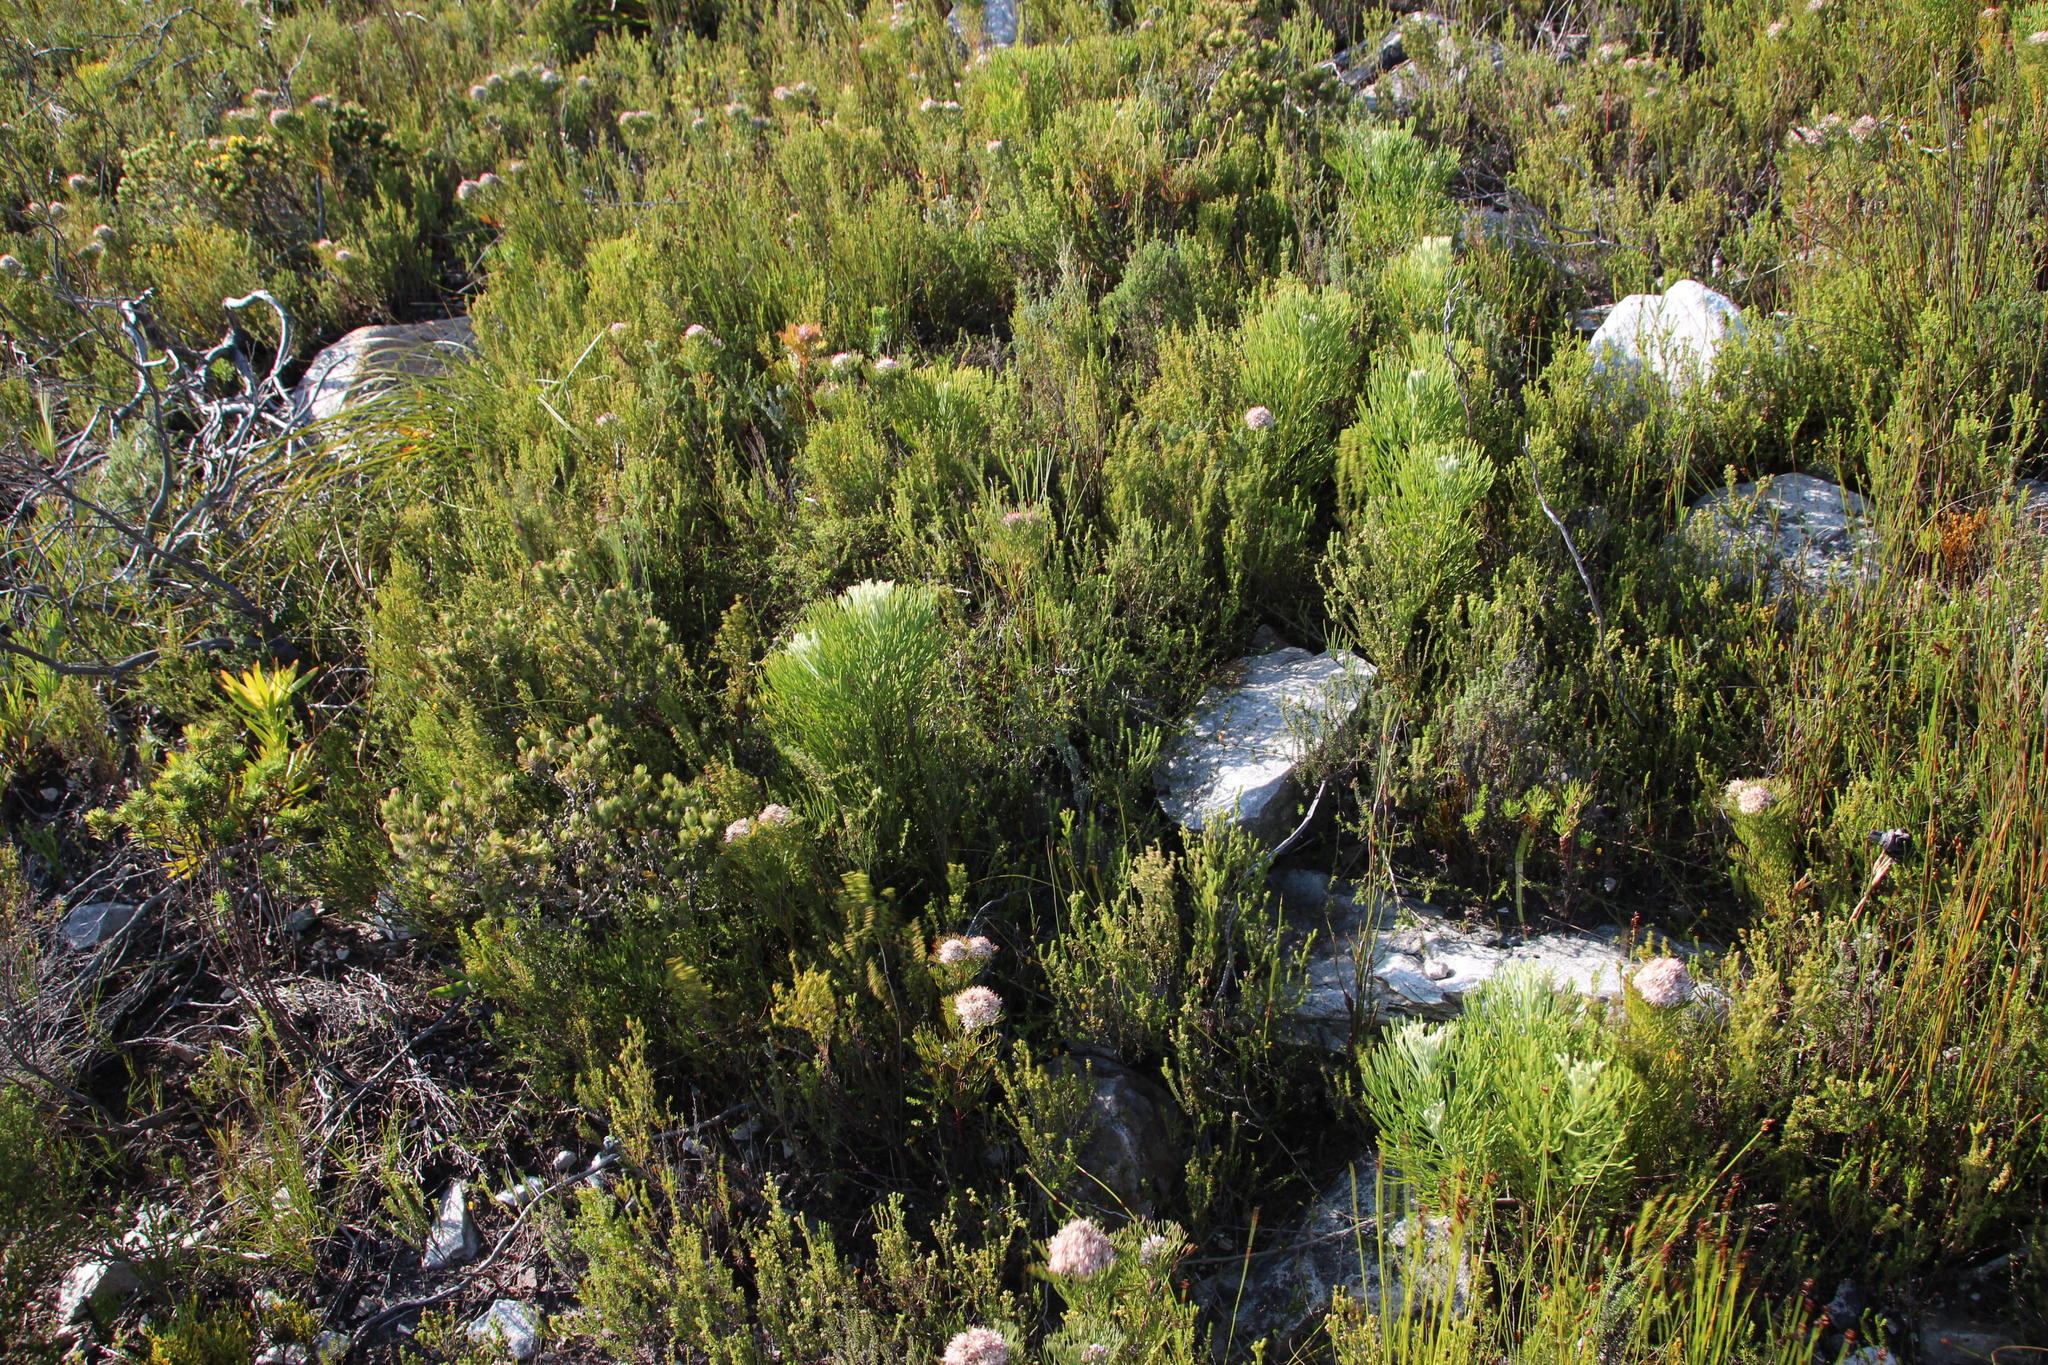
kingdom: Plantae
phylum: Tracheophyta
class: Magnoliopsida
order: Proteales
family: Proteaceae
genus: Paranomus
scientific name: Paranomus sceptrum-gustavianus
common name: King gustav's sceptre
